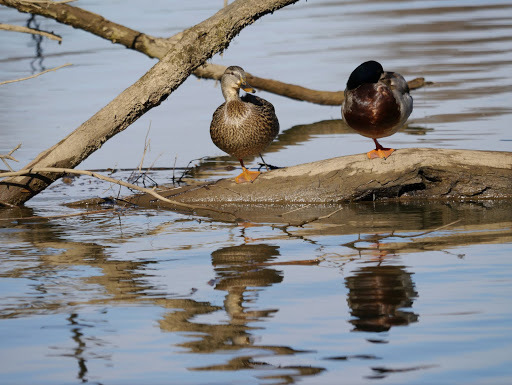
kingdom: Animalia
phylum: Chordata
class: Aves
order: Anseriformes
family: Anatidae
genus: Anas
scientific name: Anas platyrhynchos
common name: Mallard
